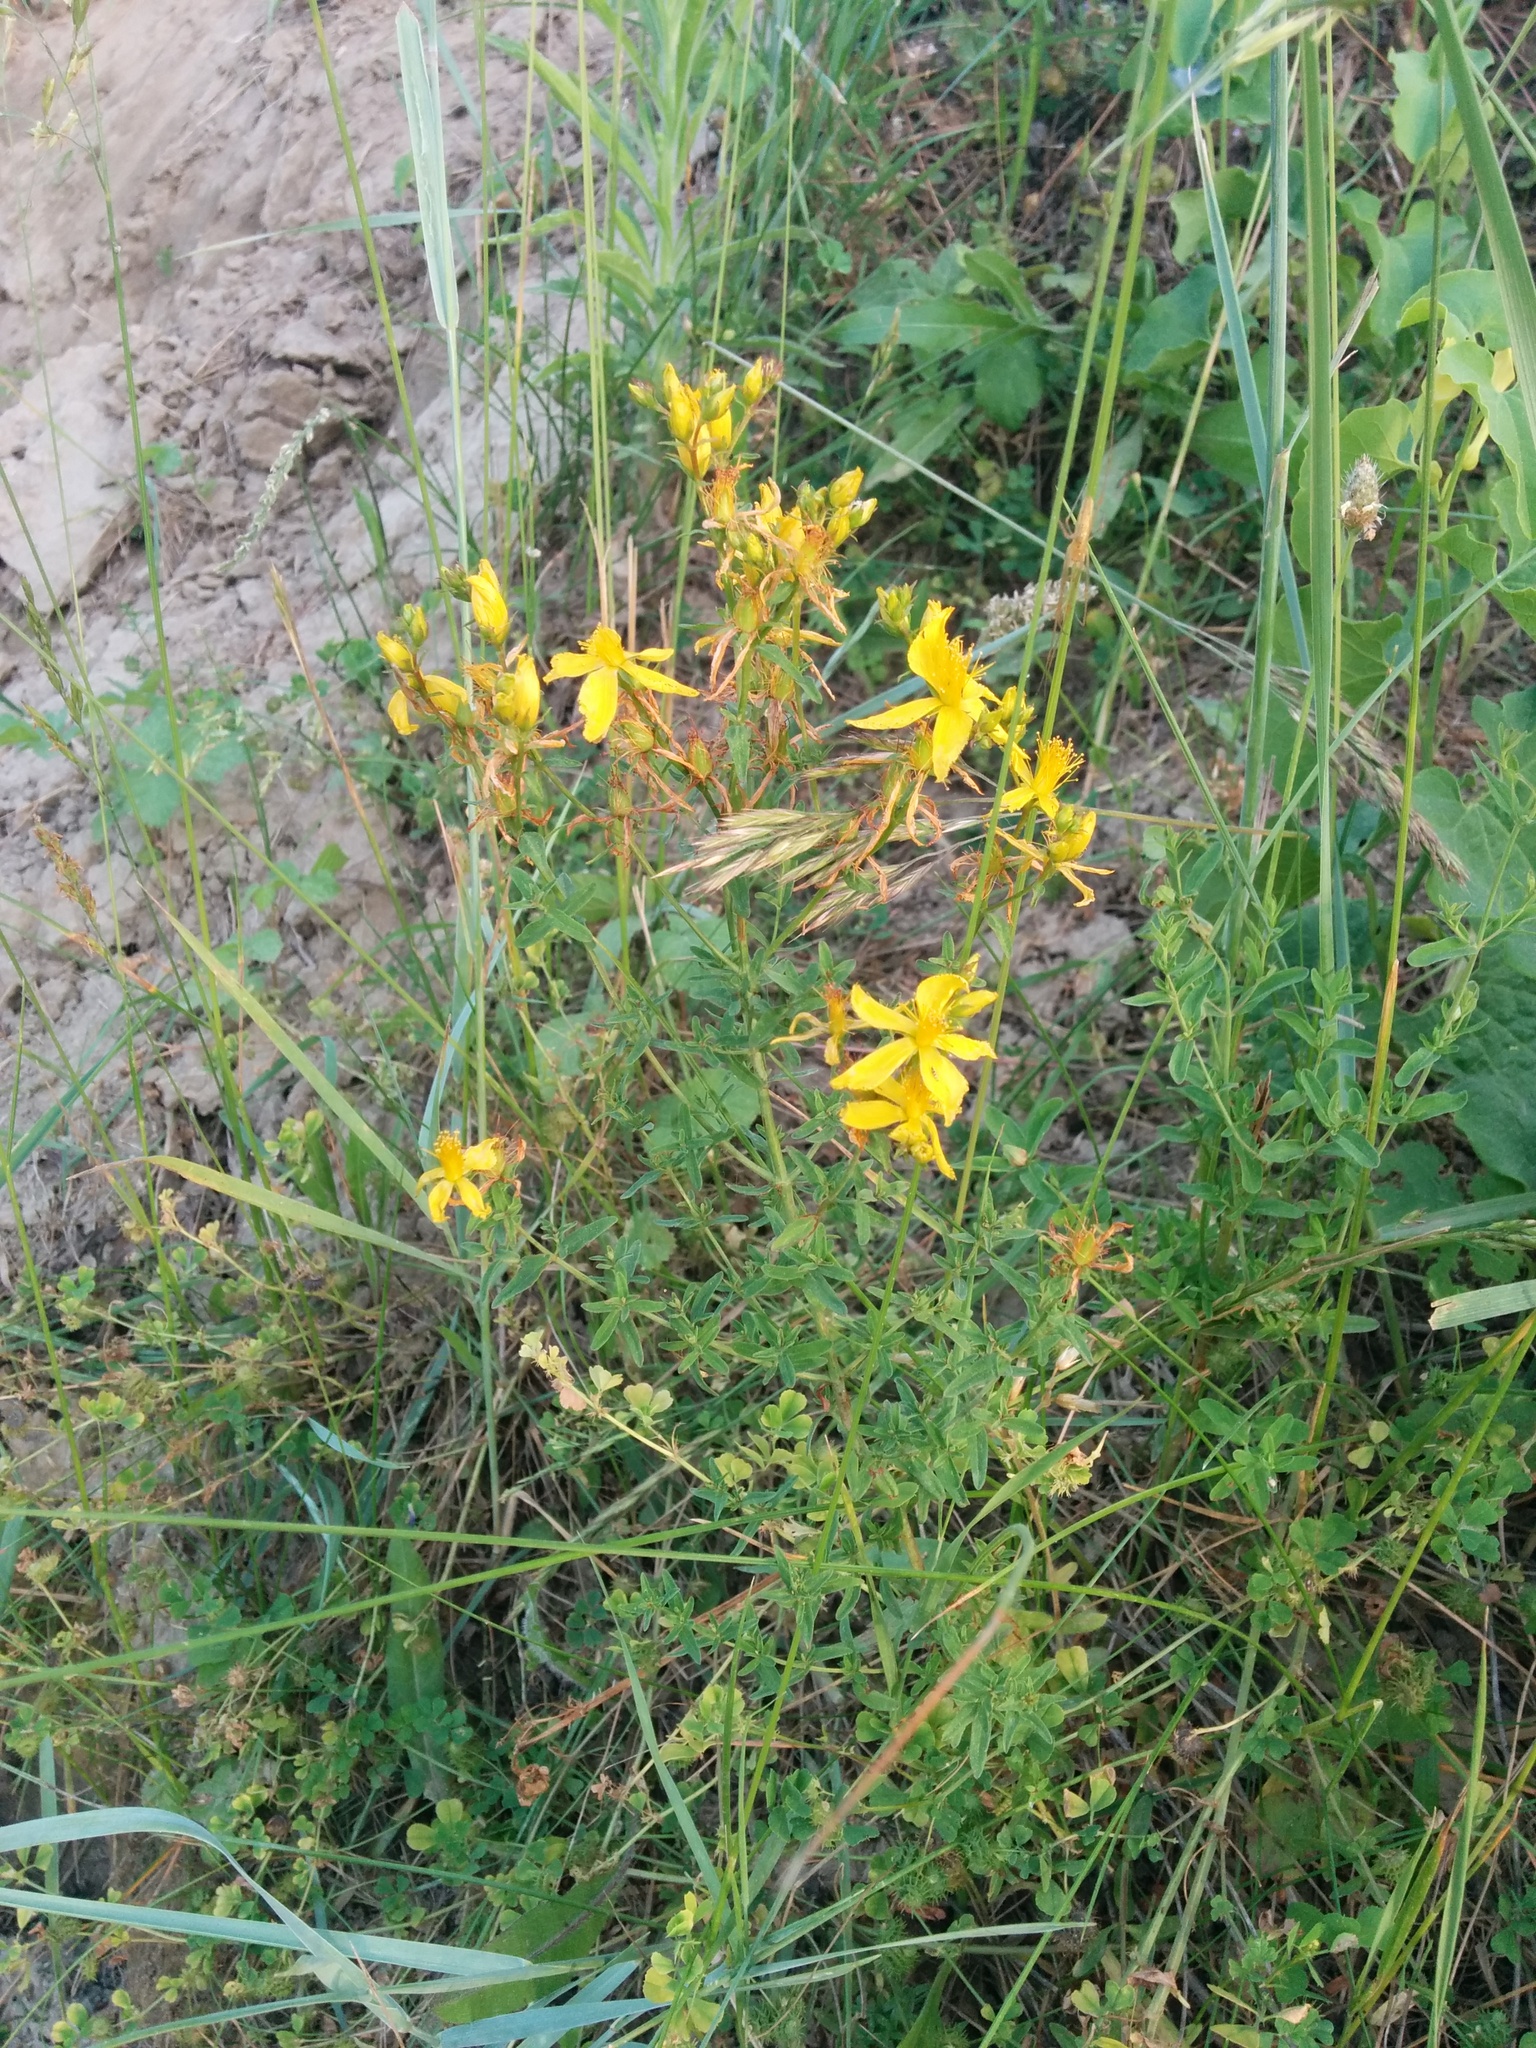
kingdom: Plantae
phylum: Tracheophyta
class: Magnoliopsida
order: Malpighiales
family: Hypericaceae
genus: Hypericum
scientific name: Hypericum perforatum
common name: Common st. johnswort
